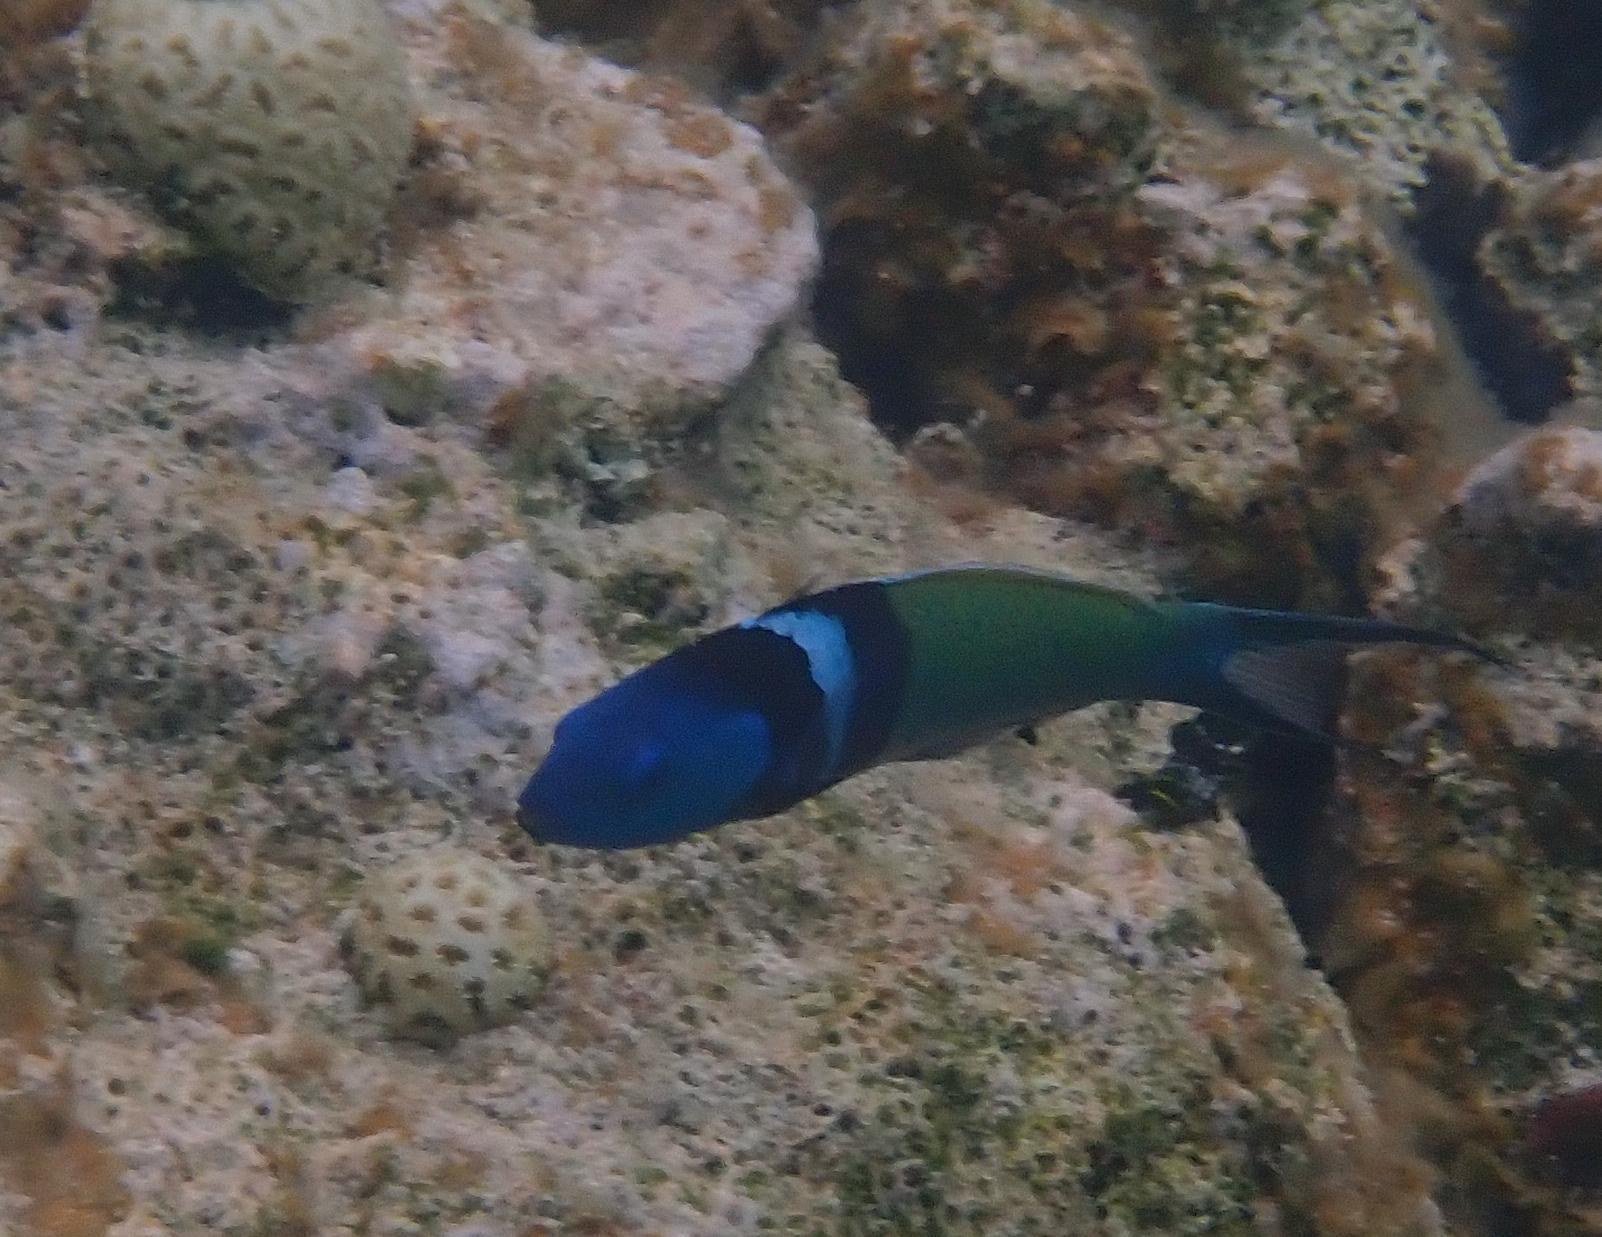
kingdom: Animalia
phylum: Chordata
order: Perciformes
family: Labridae
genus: Thalassoma
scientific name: Thalassoma bifasciatum
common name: Bluehead wrasse
